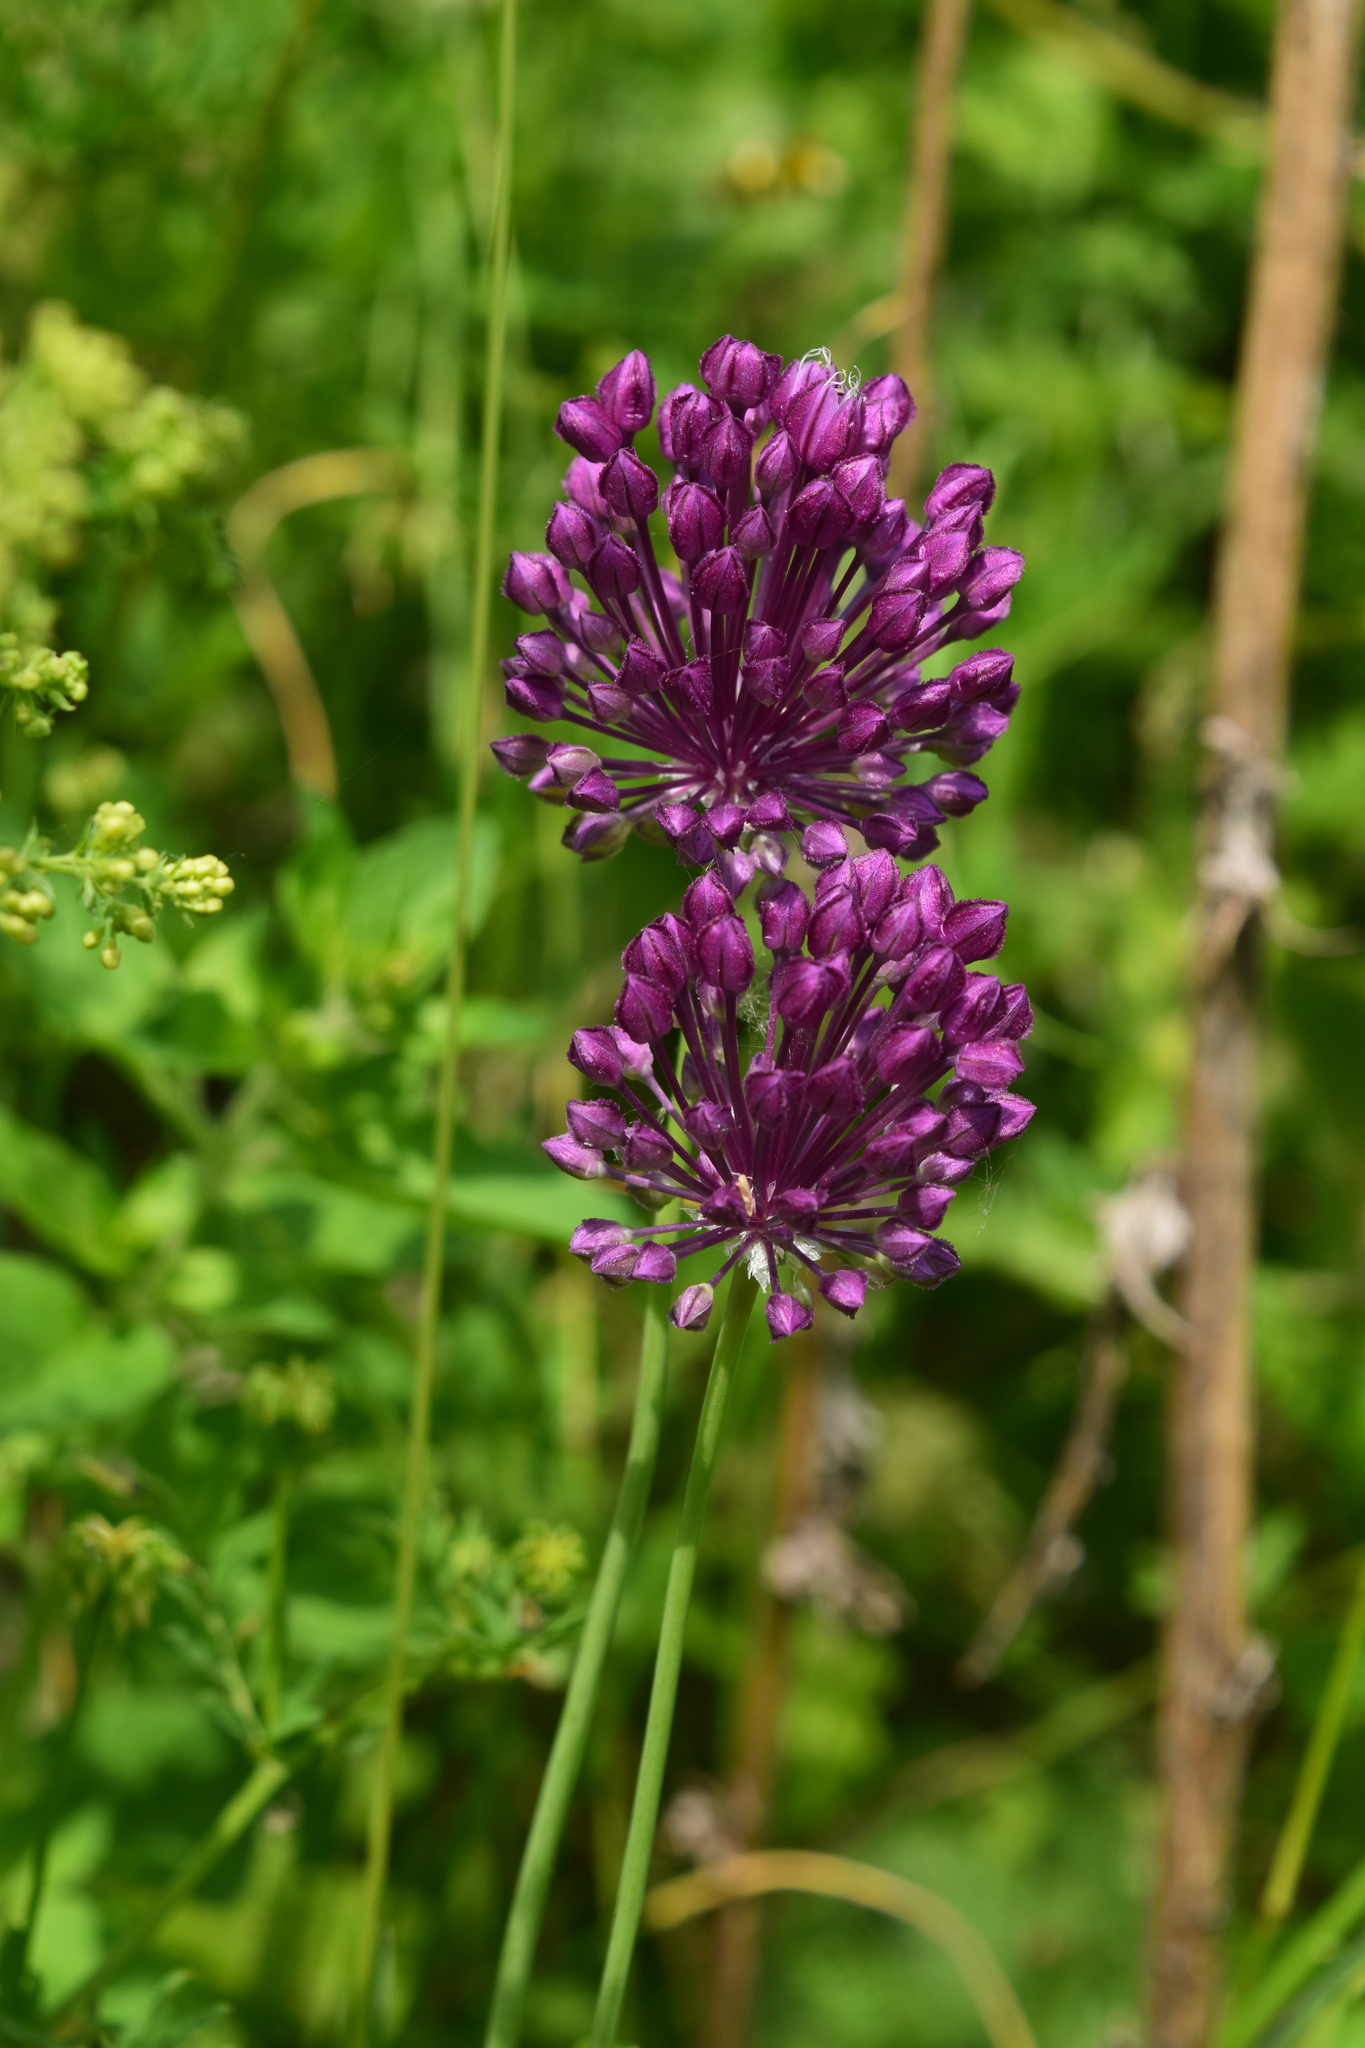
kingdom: Plantae
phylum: Tracheophyta
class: Liliopsida
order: Asparagales
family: Amaryllidaceae
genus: Allium
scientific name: Allium rotundum
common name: Sand leek
